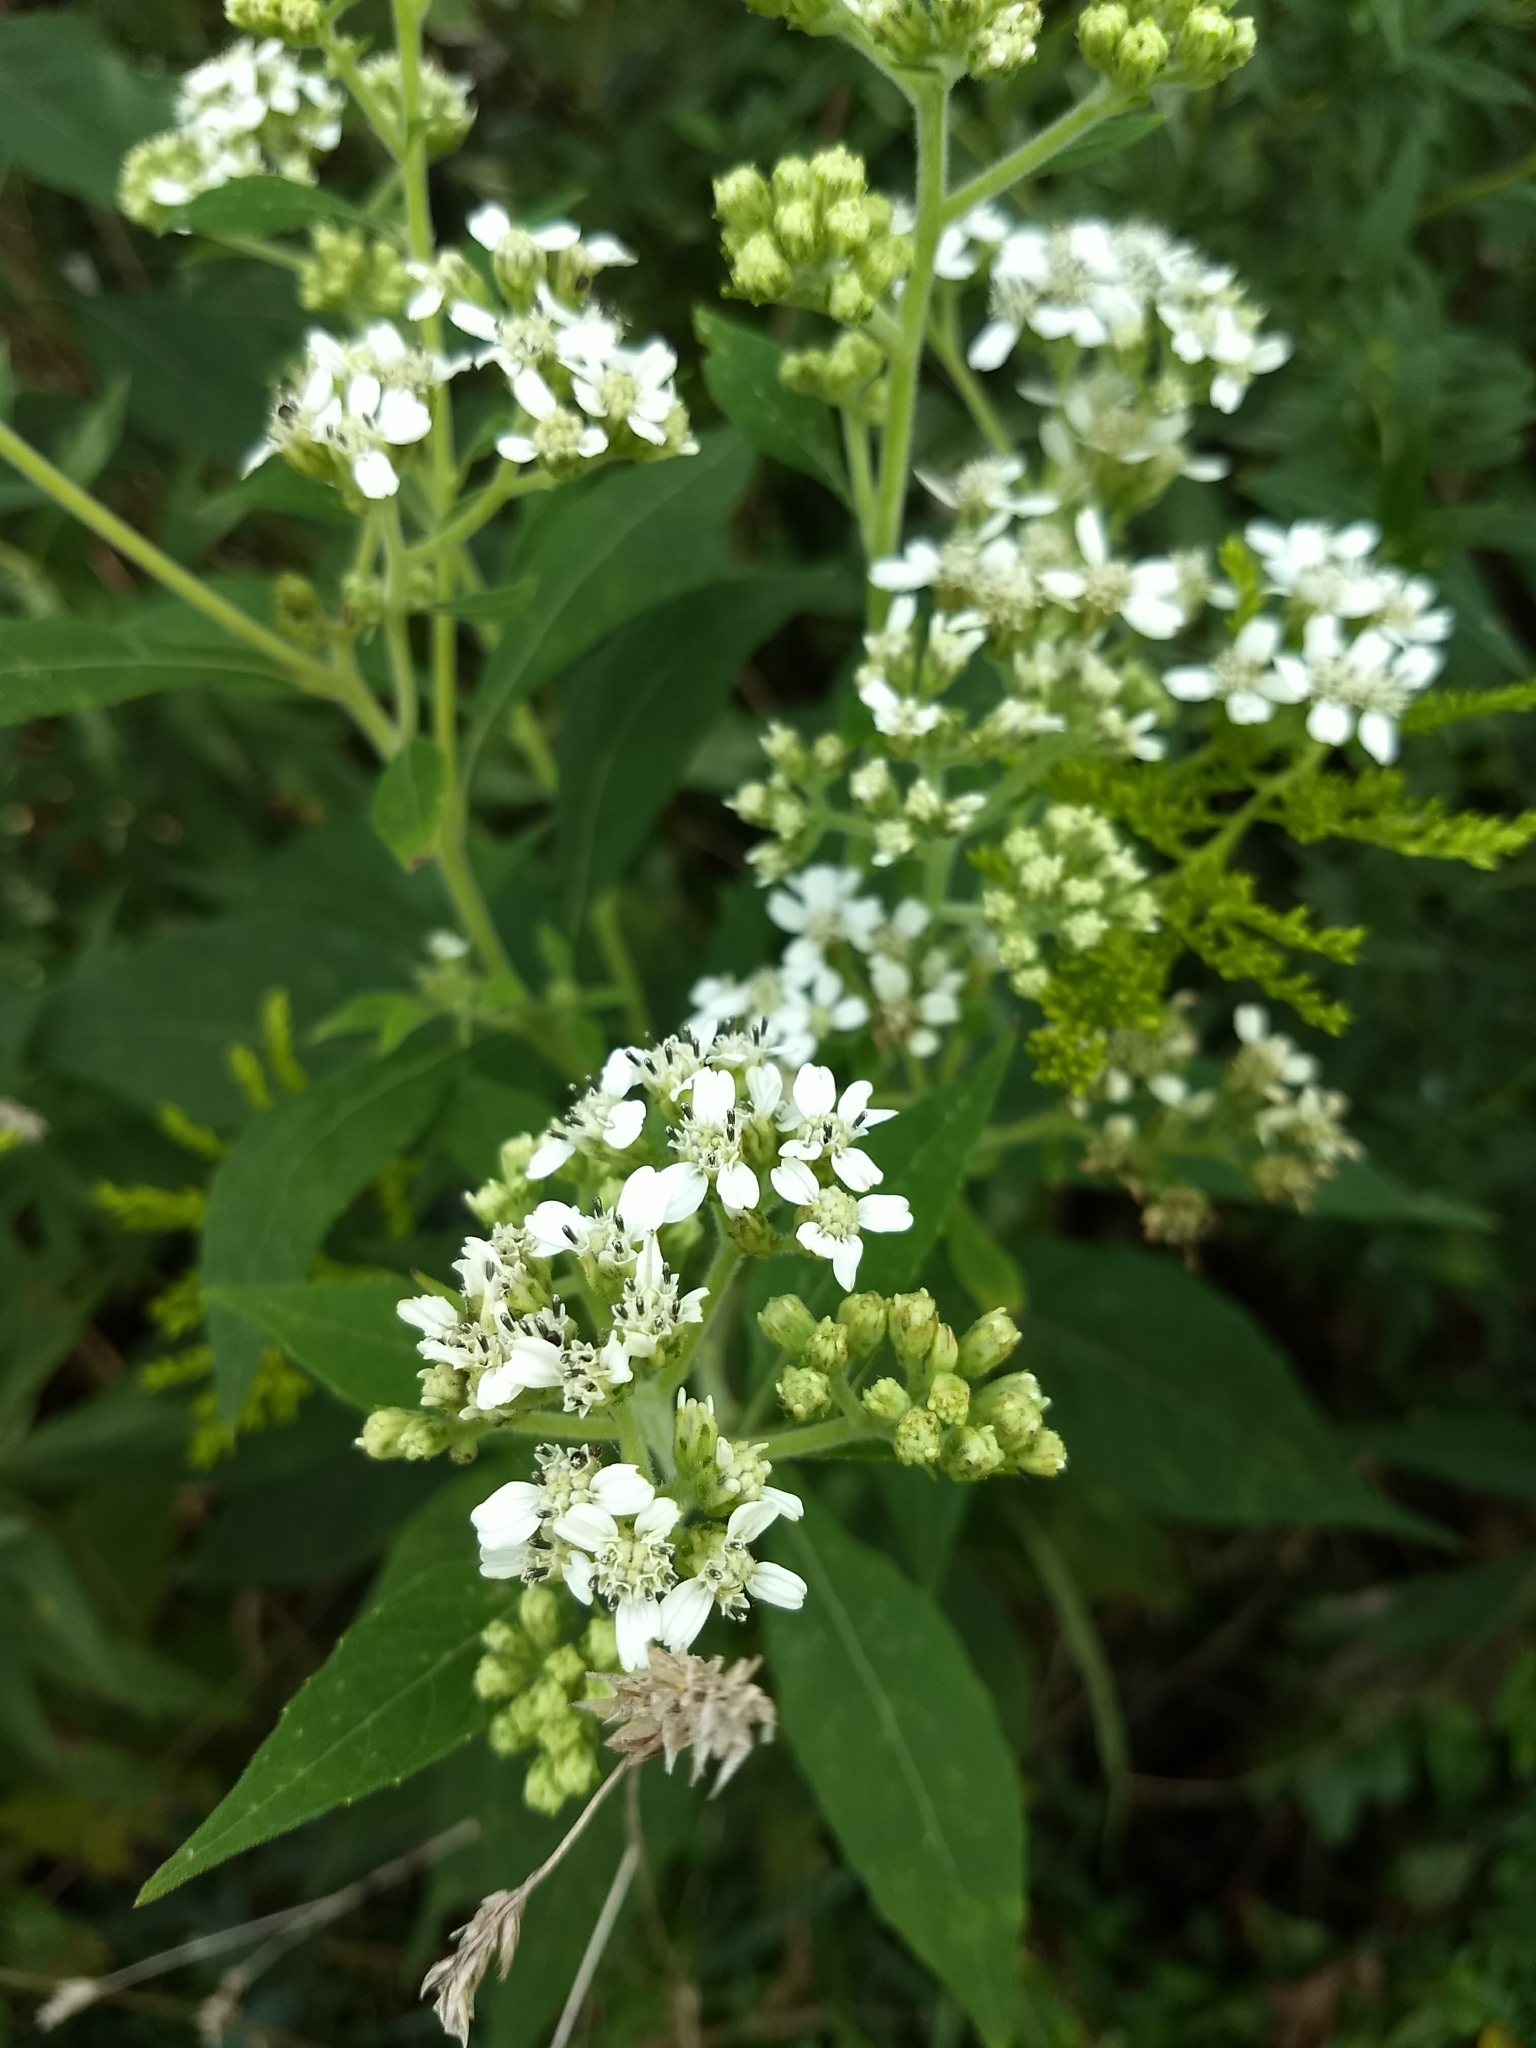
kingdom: Plantae
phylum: Tracheophyta
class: Magnoliopsida
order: Asterales
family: Asteraceae
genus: Verbesina
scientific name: Verbesina virginica
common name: Frostweed
